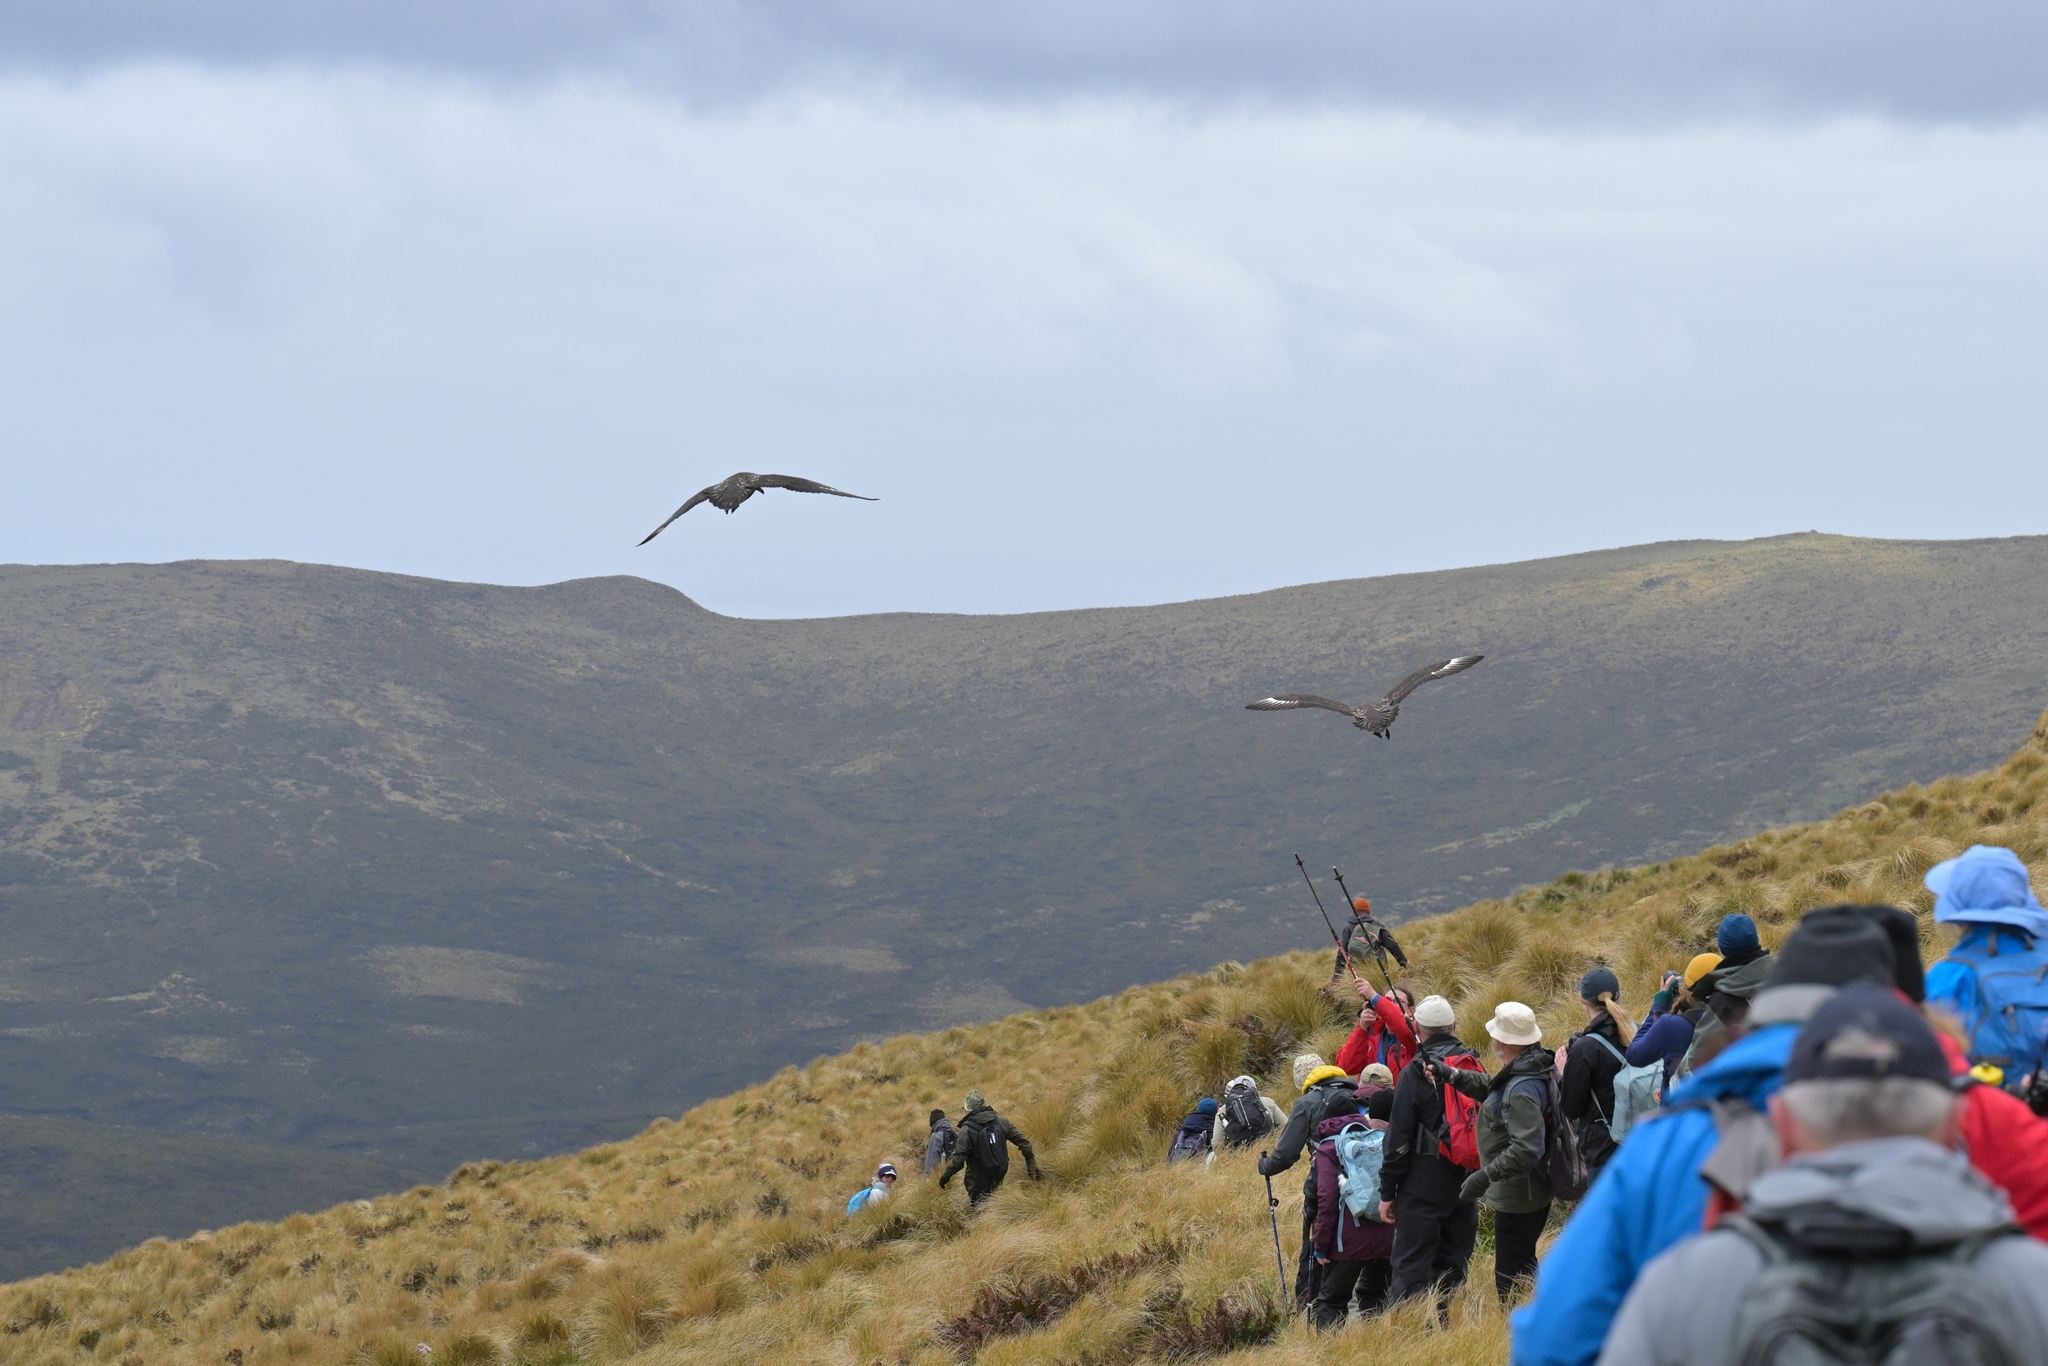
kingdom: Animalia
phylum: Chordata
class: Aves
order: Charadriiformes
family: Stercorariidae
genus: Stercorarius
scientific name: Stercorarius antarcticus
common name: Brown skua
